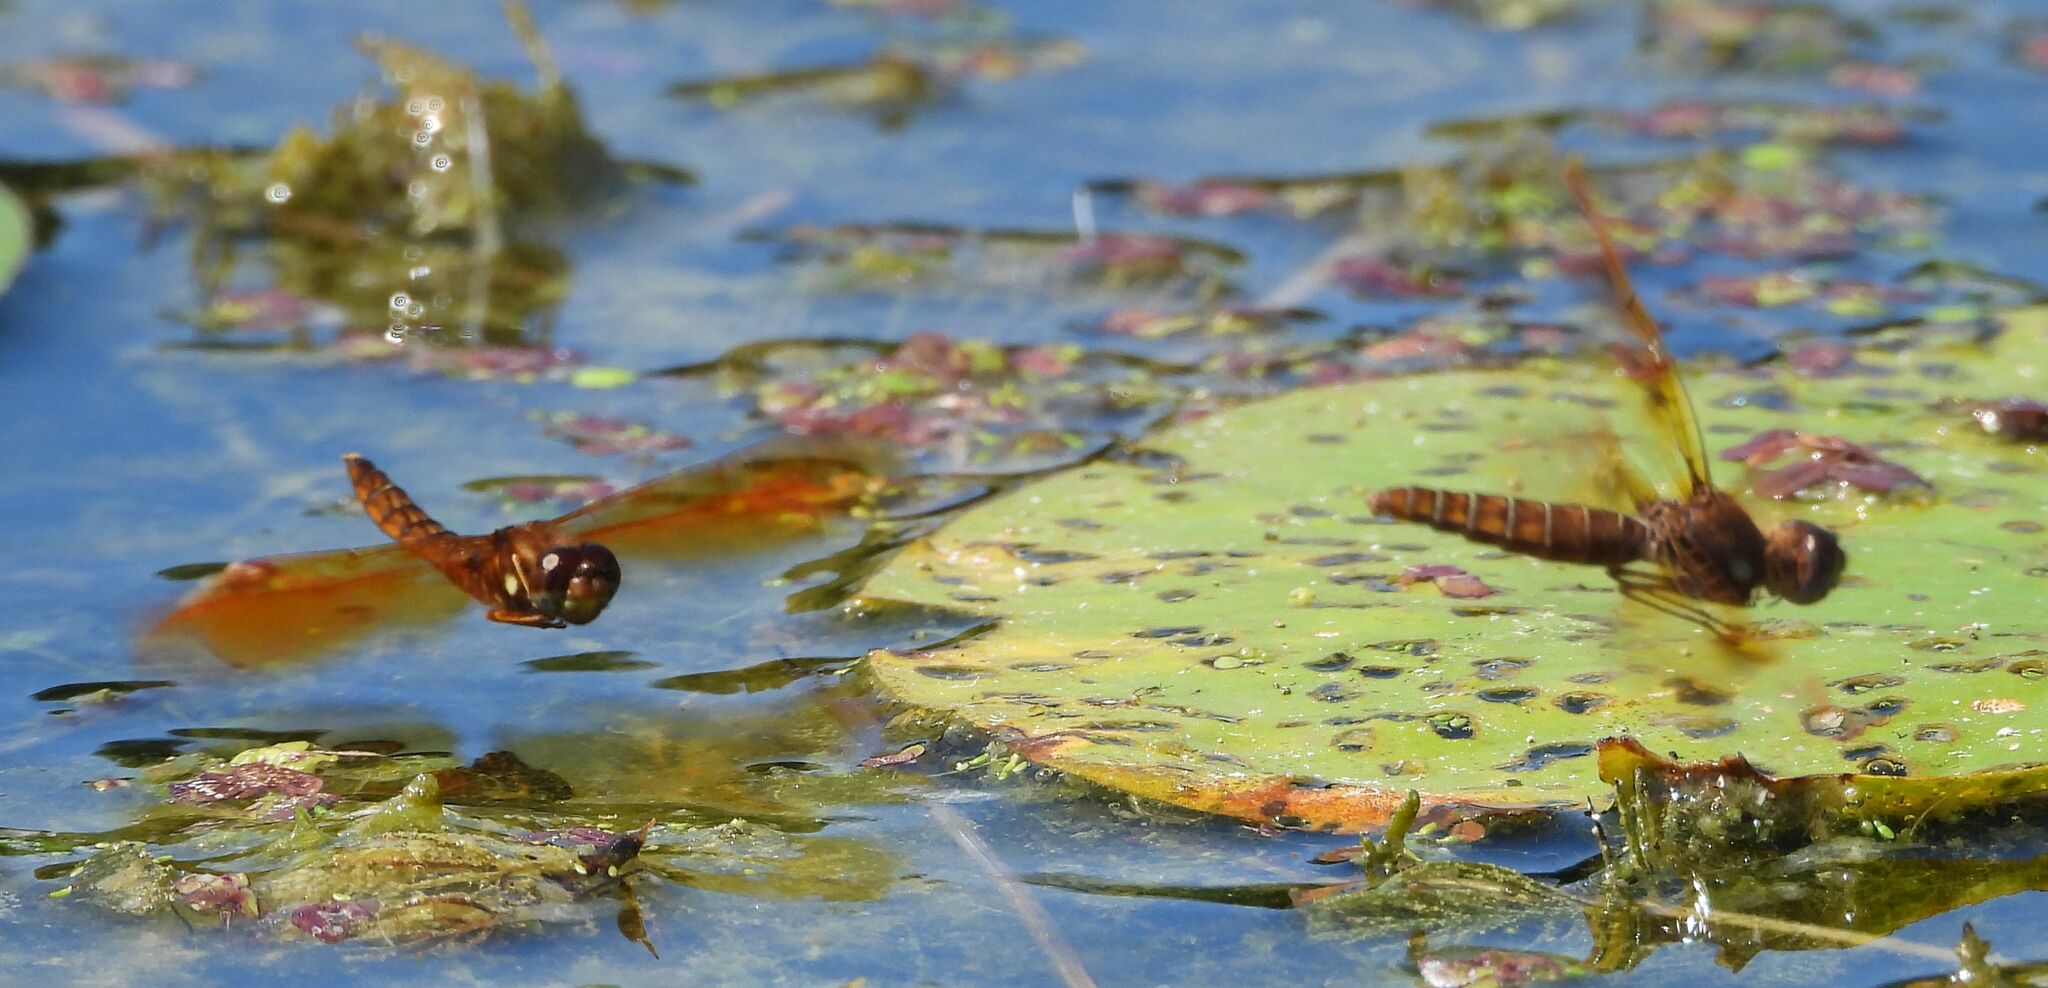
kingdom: Animalia
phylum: Arthropoda
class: Insecta
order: Odonata
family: Libellulidae
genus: Perithemis
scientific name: Perithemis tenera
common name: Eastern amberwing
